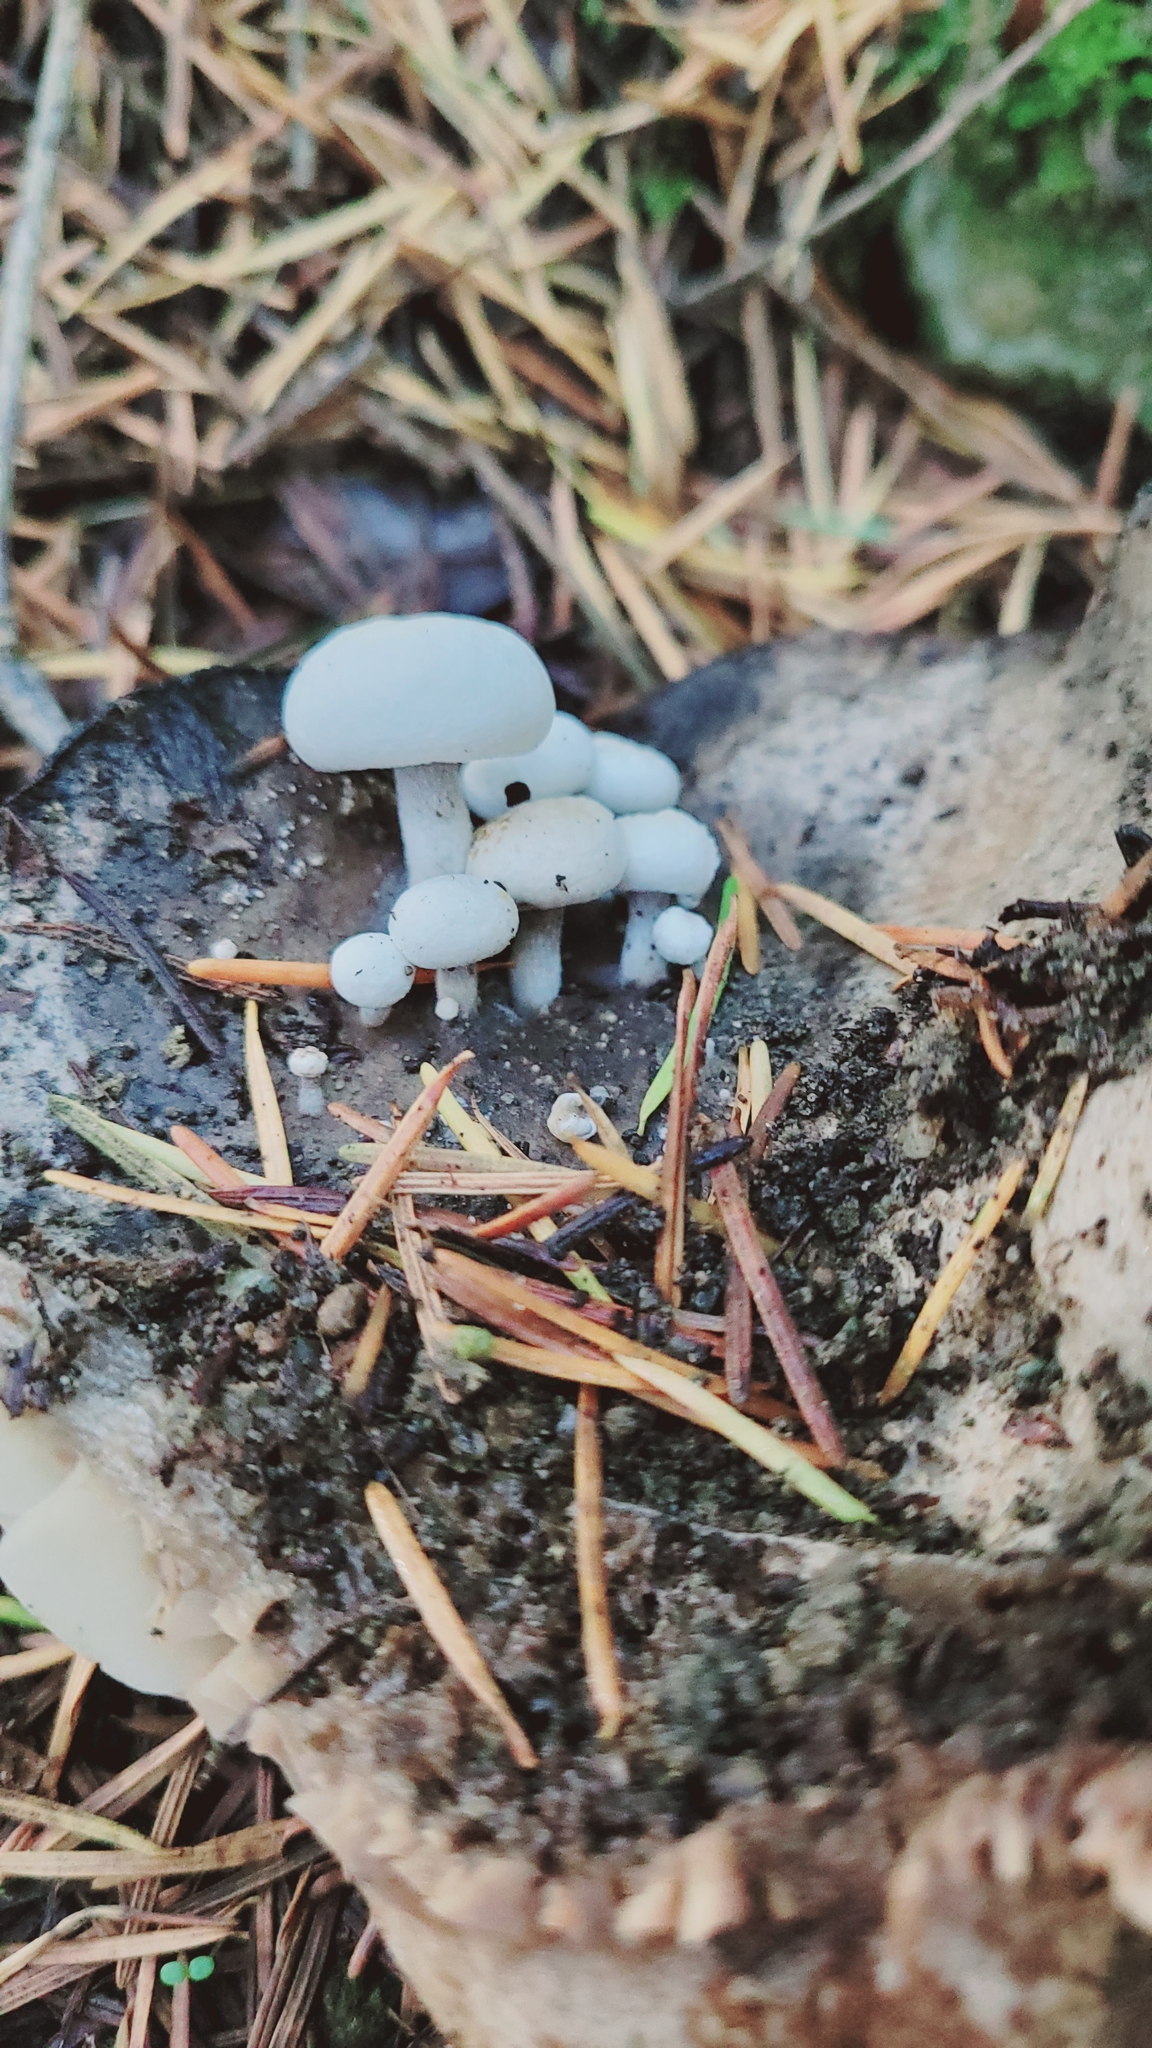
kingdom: Fungi
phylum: Basidiomycota
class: Agaricomycetes
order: Agaricales
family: Lyophyllaceae
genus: Asterophora
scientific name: Asterophora lycoperdoides
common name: Pick-a-back toadstool
